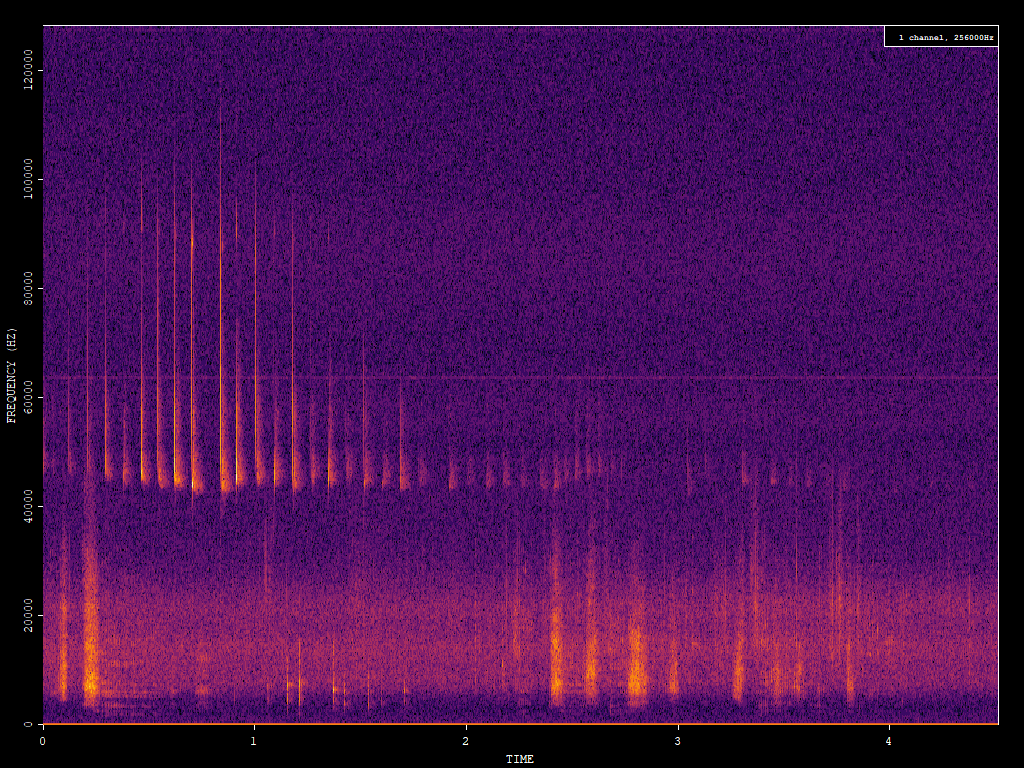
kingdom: Animalia
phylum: Chordata
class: Mammalia
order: Chiroptera
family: Vespertilionidae
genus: Pipistrellus
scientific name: Pipistrellus pipistrellus
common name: Common pipistrelle
